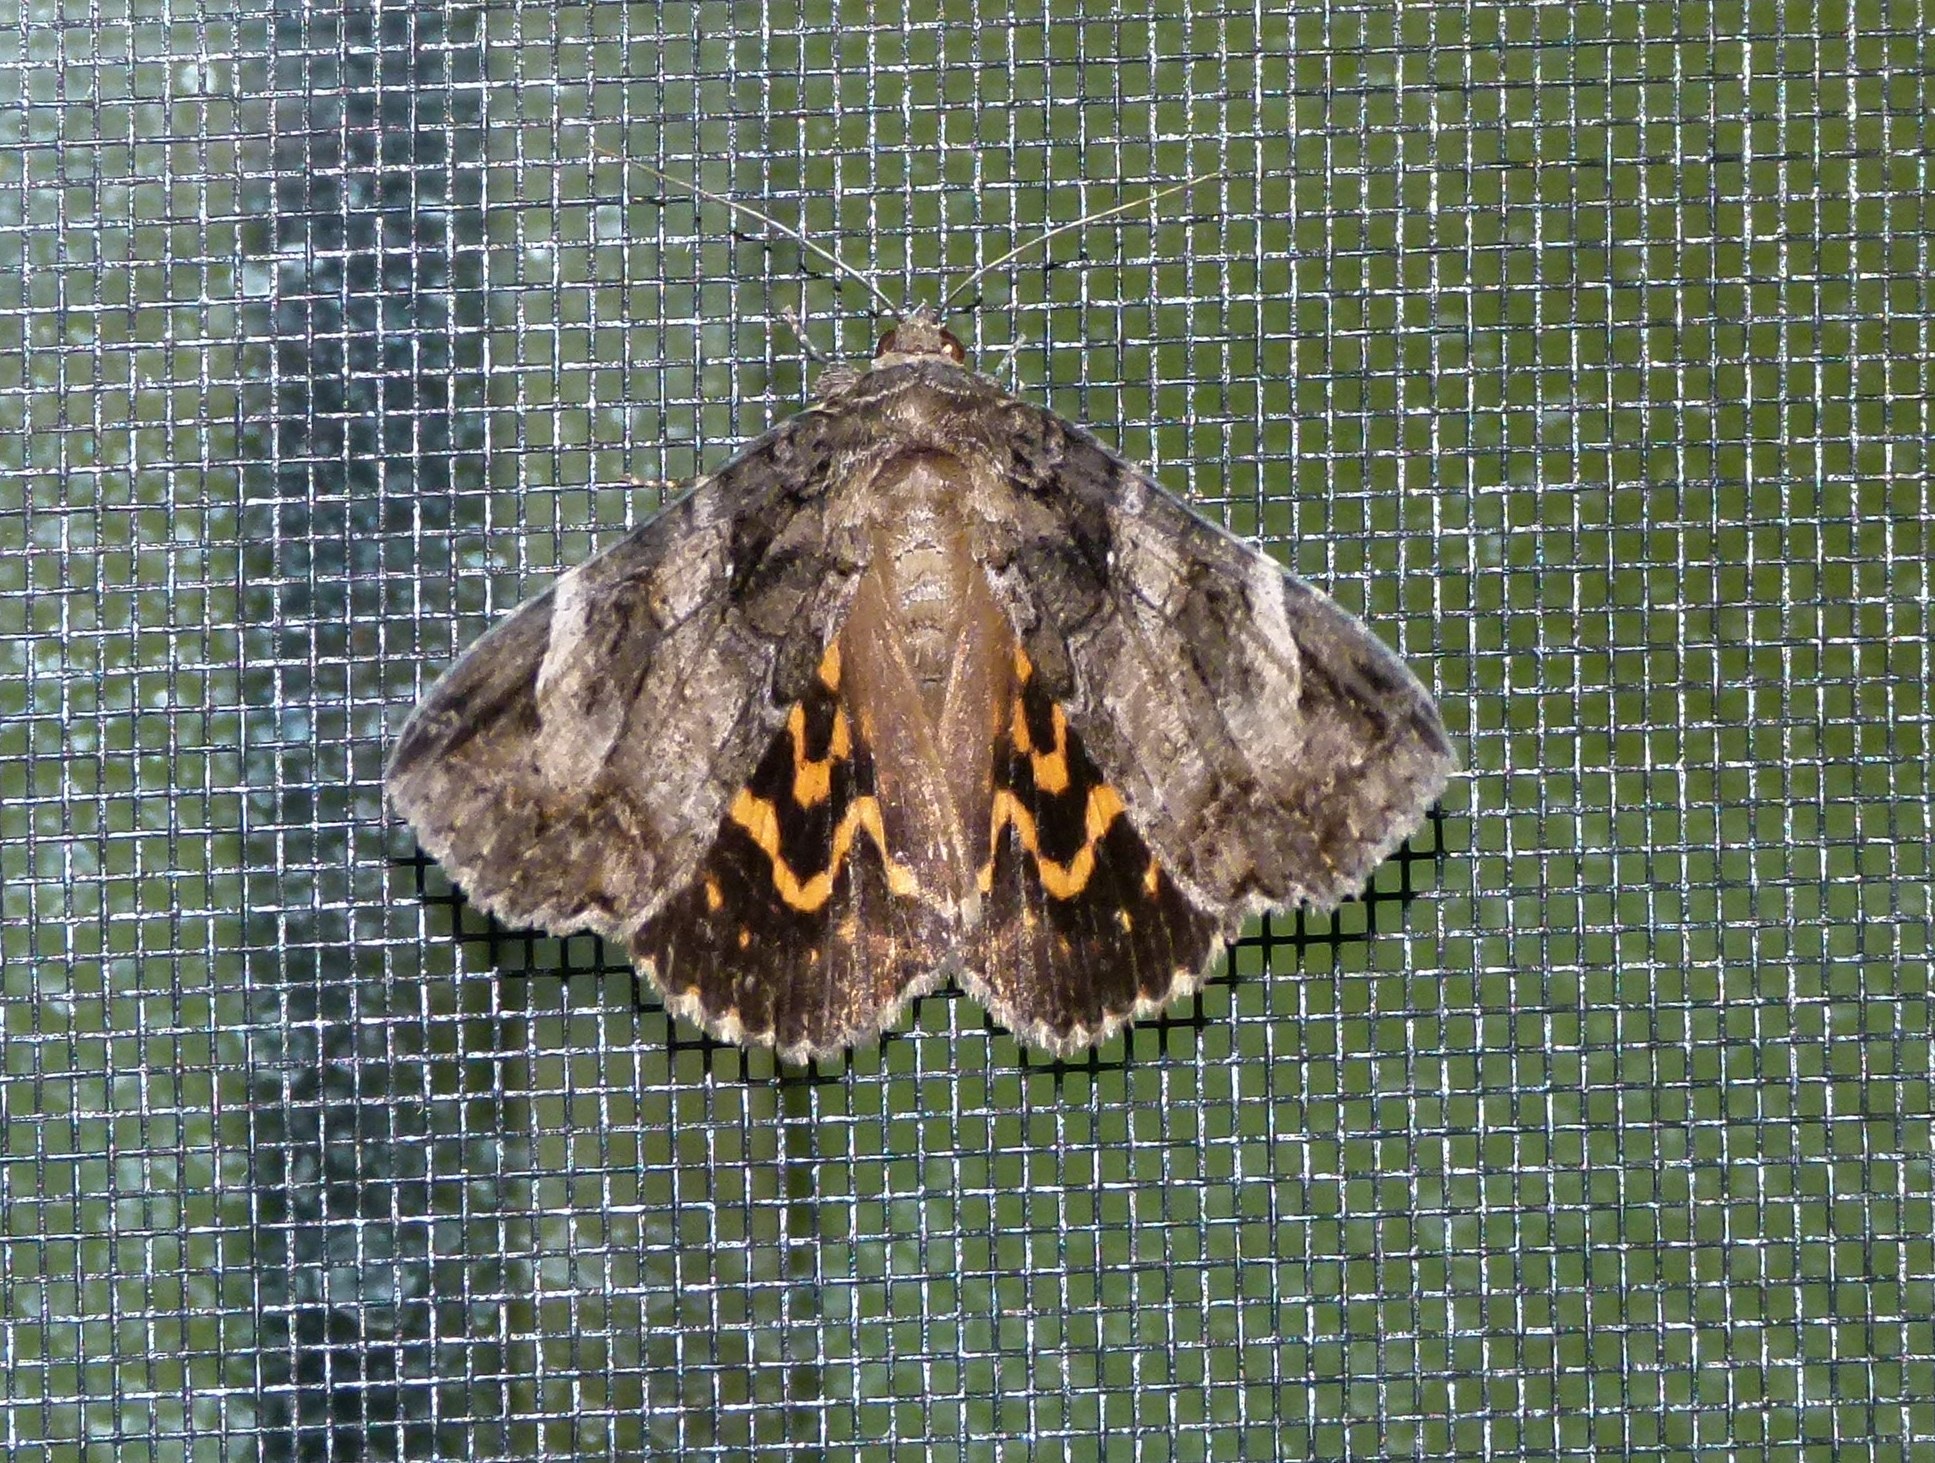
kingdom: Animalia
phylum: Arthropoda
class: Insecta
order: Lepidoptera
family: Erebidae
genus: Euparthenos
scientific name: Euparthenos nubilis
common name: Locust underwing
